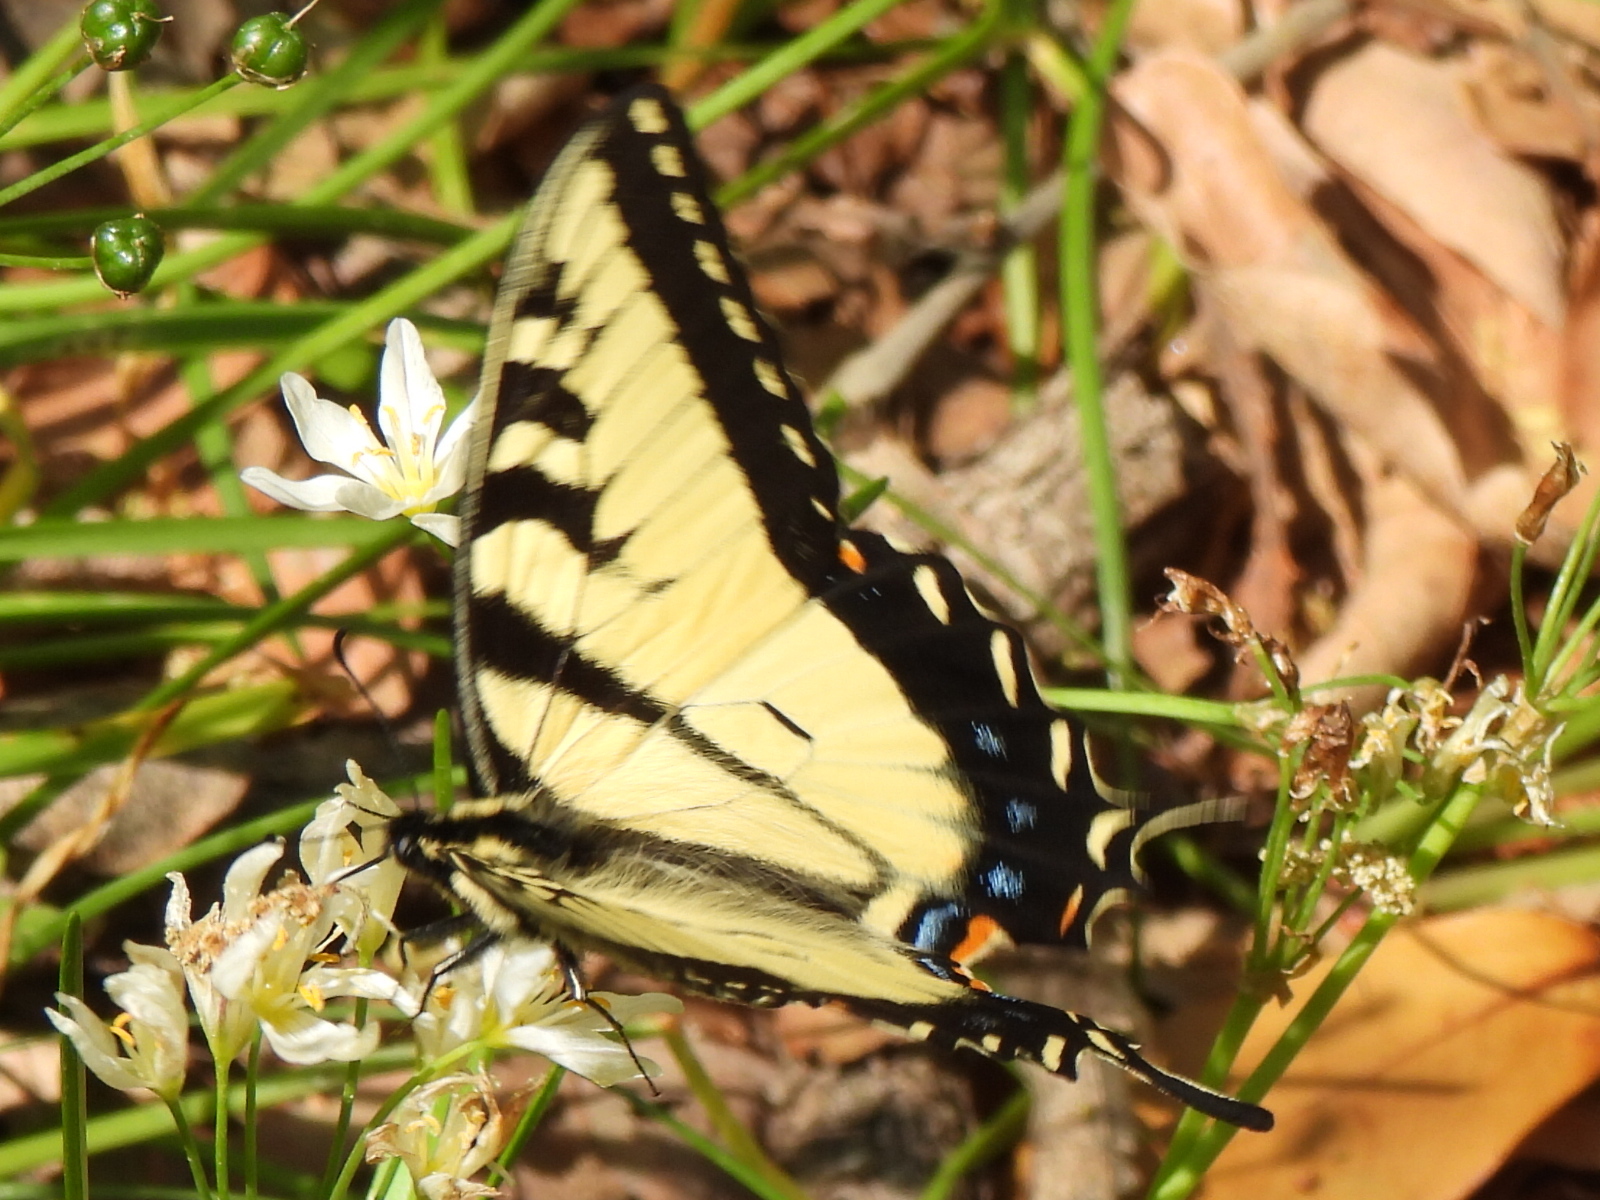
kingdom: Animalia
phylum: Arthropoda
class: Insecta
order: Lepidoptera
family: Papilionidae
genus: Papilio
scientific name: Papilio glaucus
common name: Tiger swallowtail
